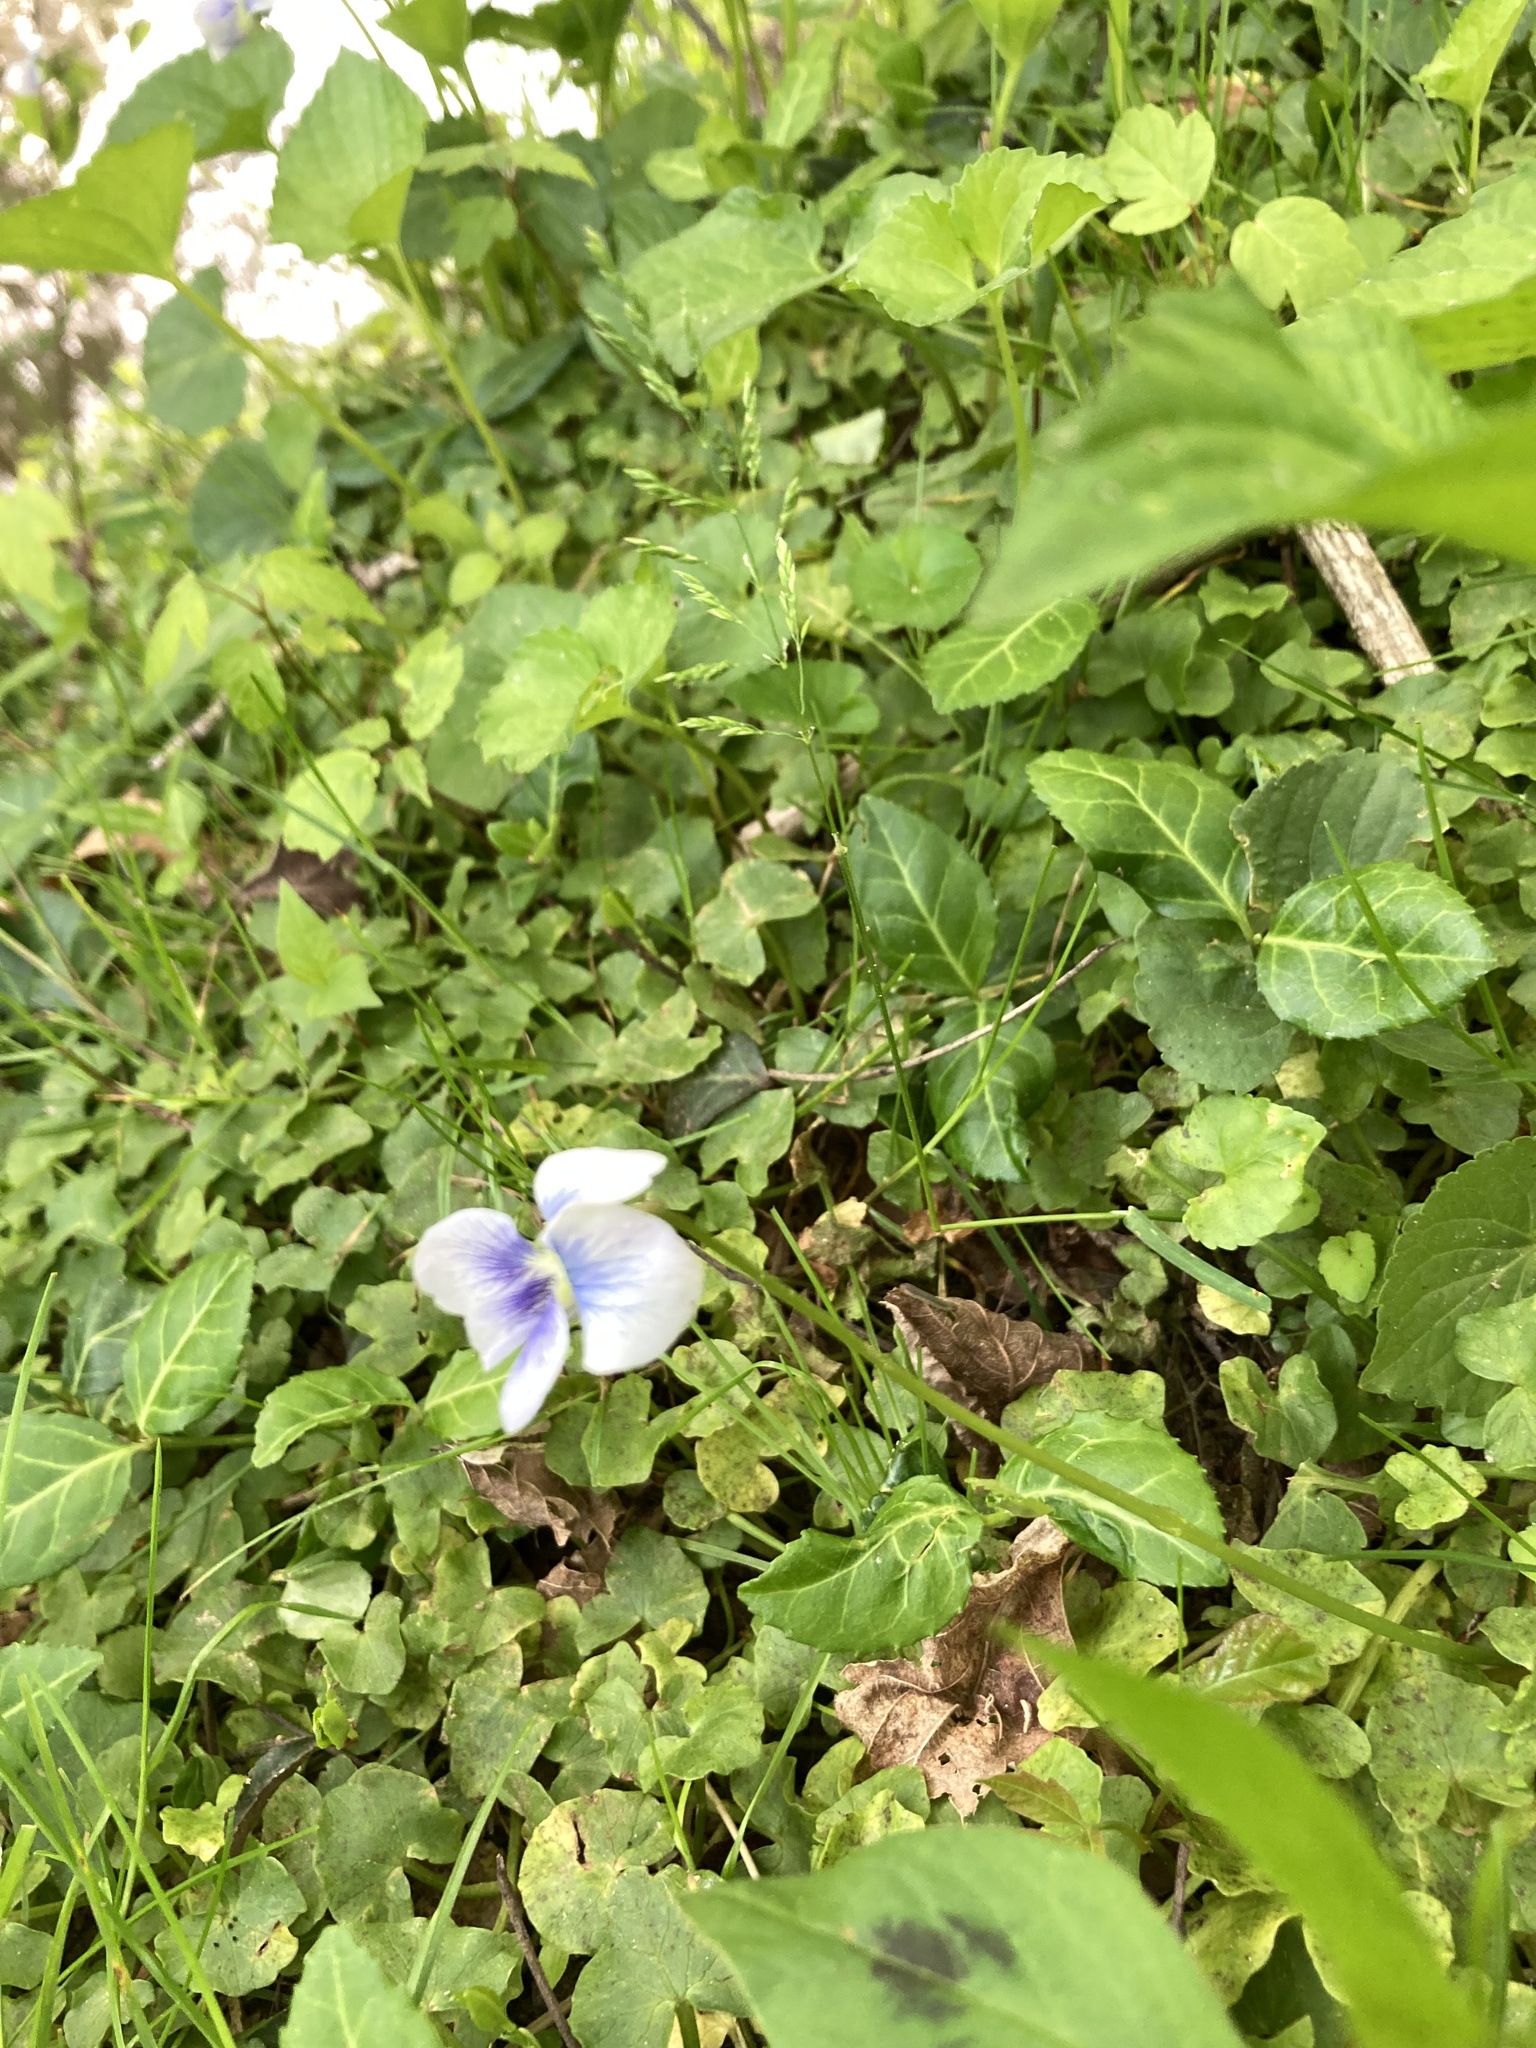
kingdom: Plantae
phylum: Tracheophyta
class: Magnoliopsida
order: Malpighiales
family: Violaceae
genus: Viola
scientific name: Viola sororia
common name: Dooryard violet
